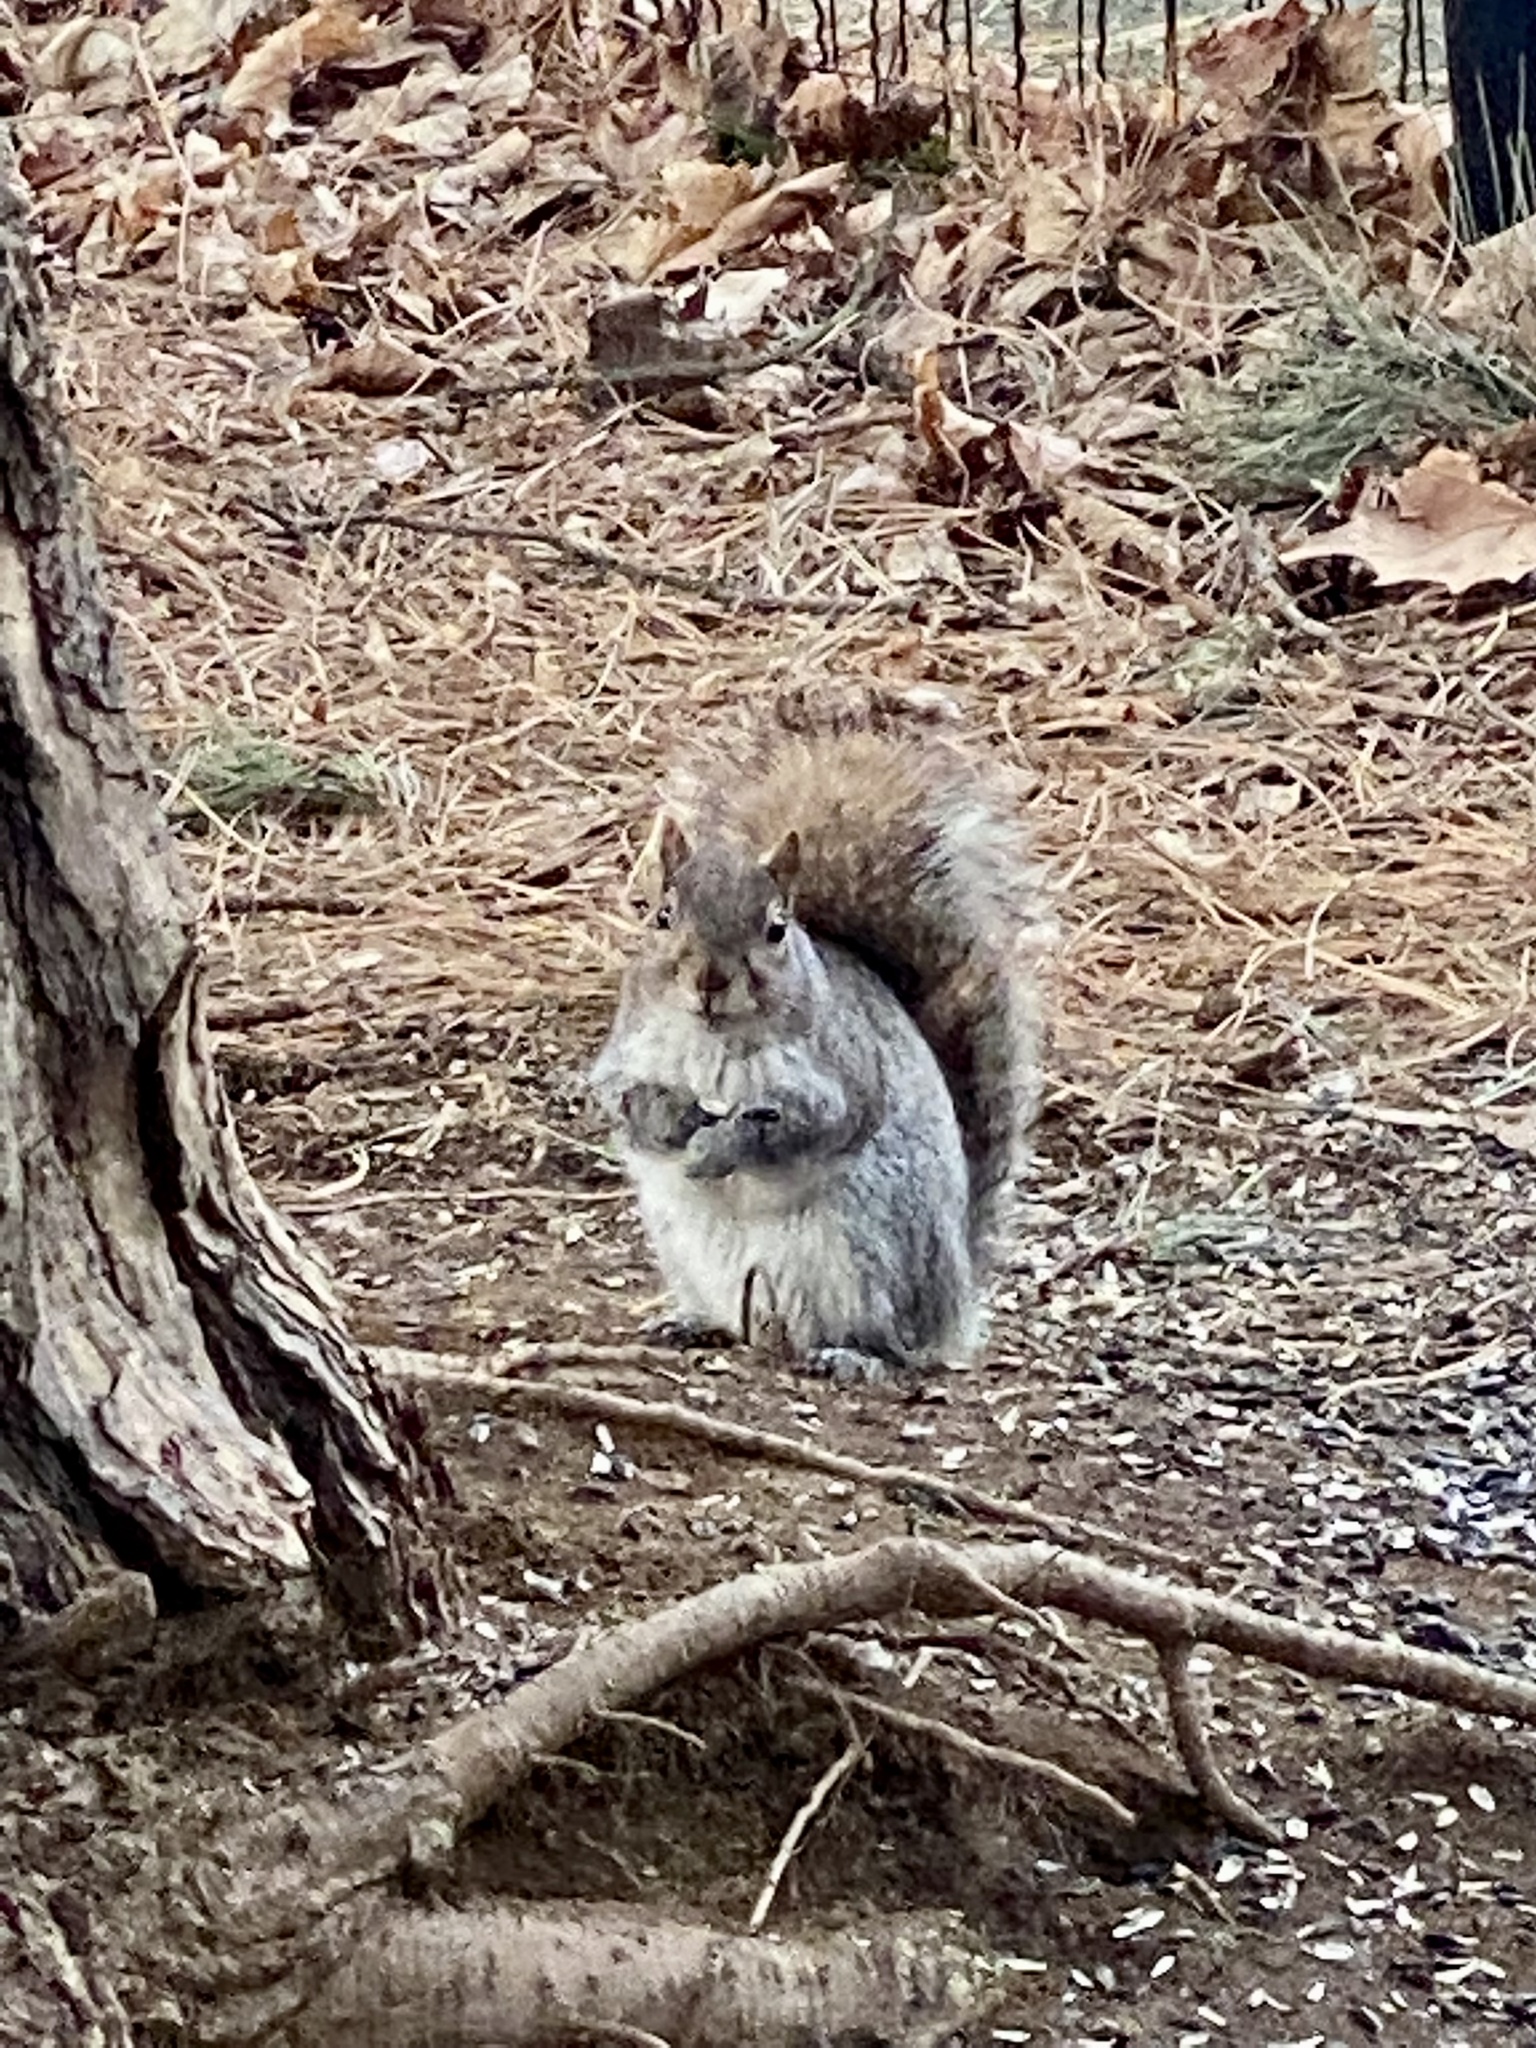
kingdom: Animalia
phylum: Chordata
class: Mammalia
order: Rodentia
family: Sciuridae
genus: Sciurus
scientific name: Sciurus carolinensis
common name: Eastern gray squirrel
